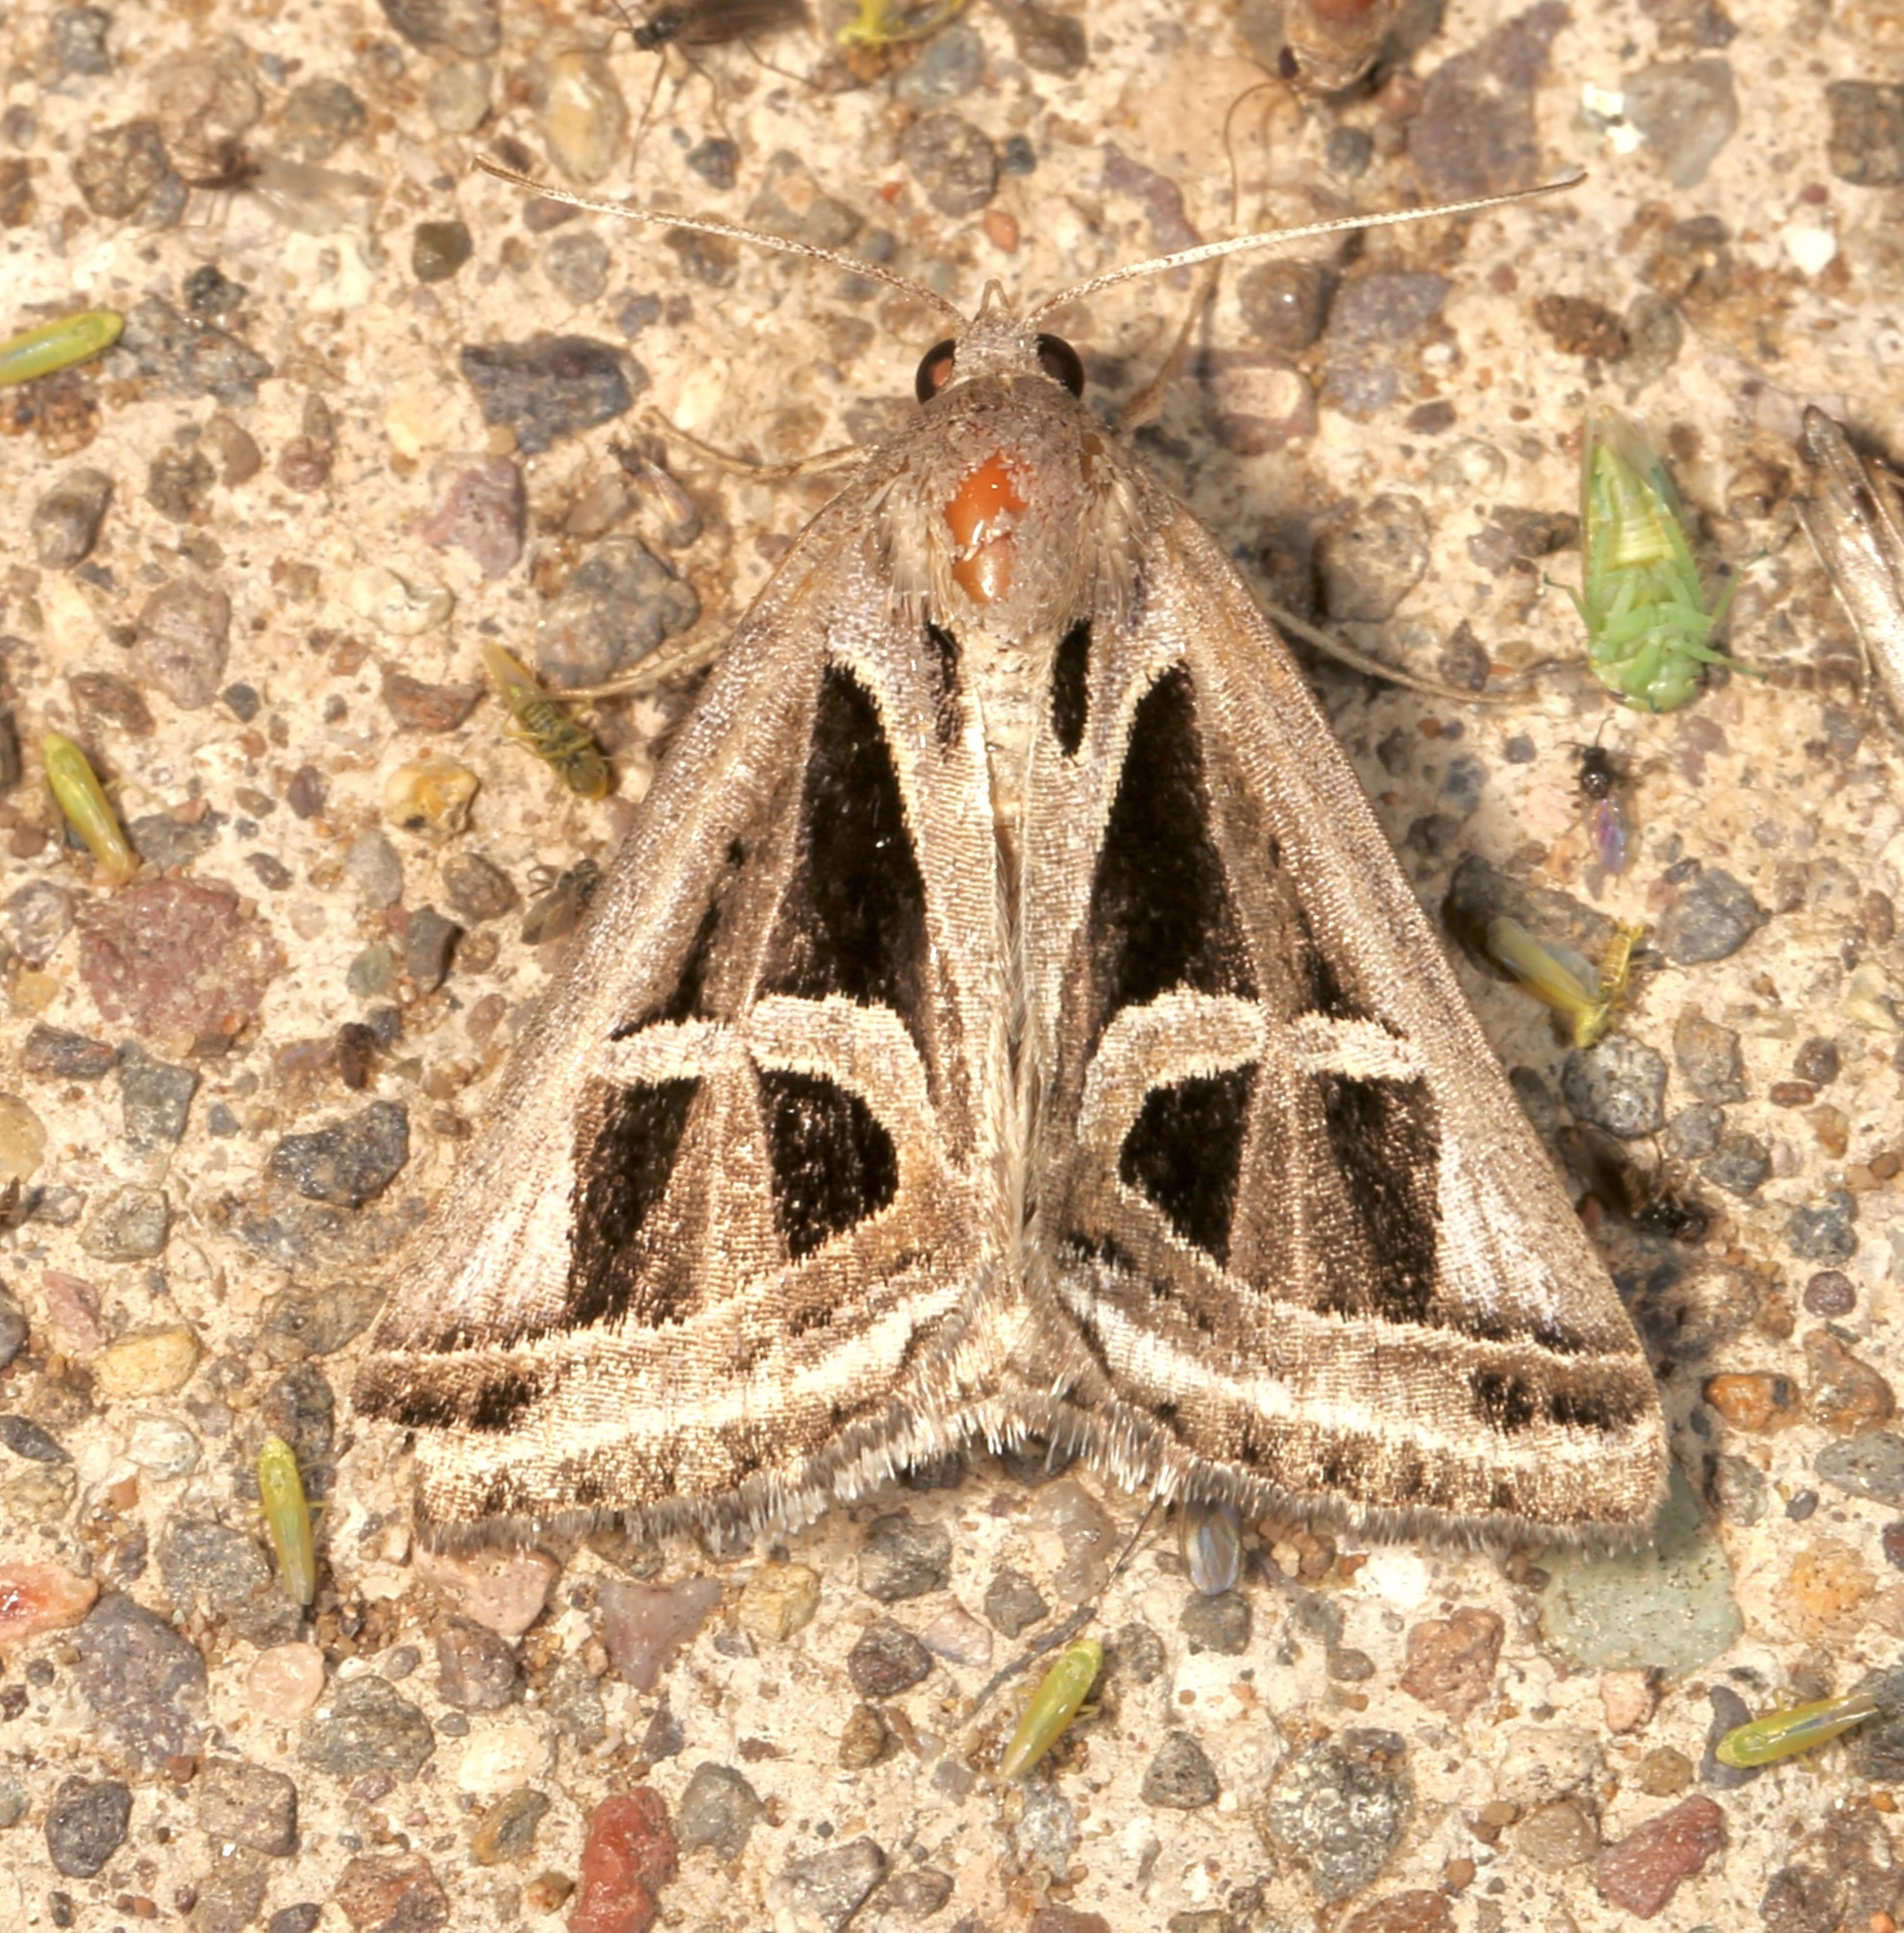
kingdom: Animalia
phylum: Arthropoda
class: Insecta
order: Lepidoptera
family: Erebidae
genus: Callistege
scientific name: Callistege intercalaris
